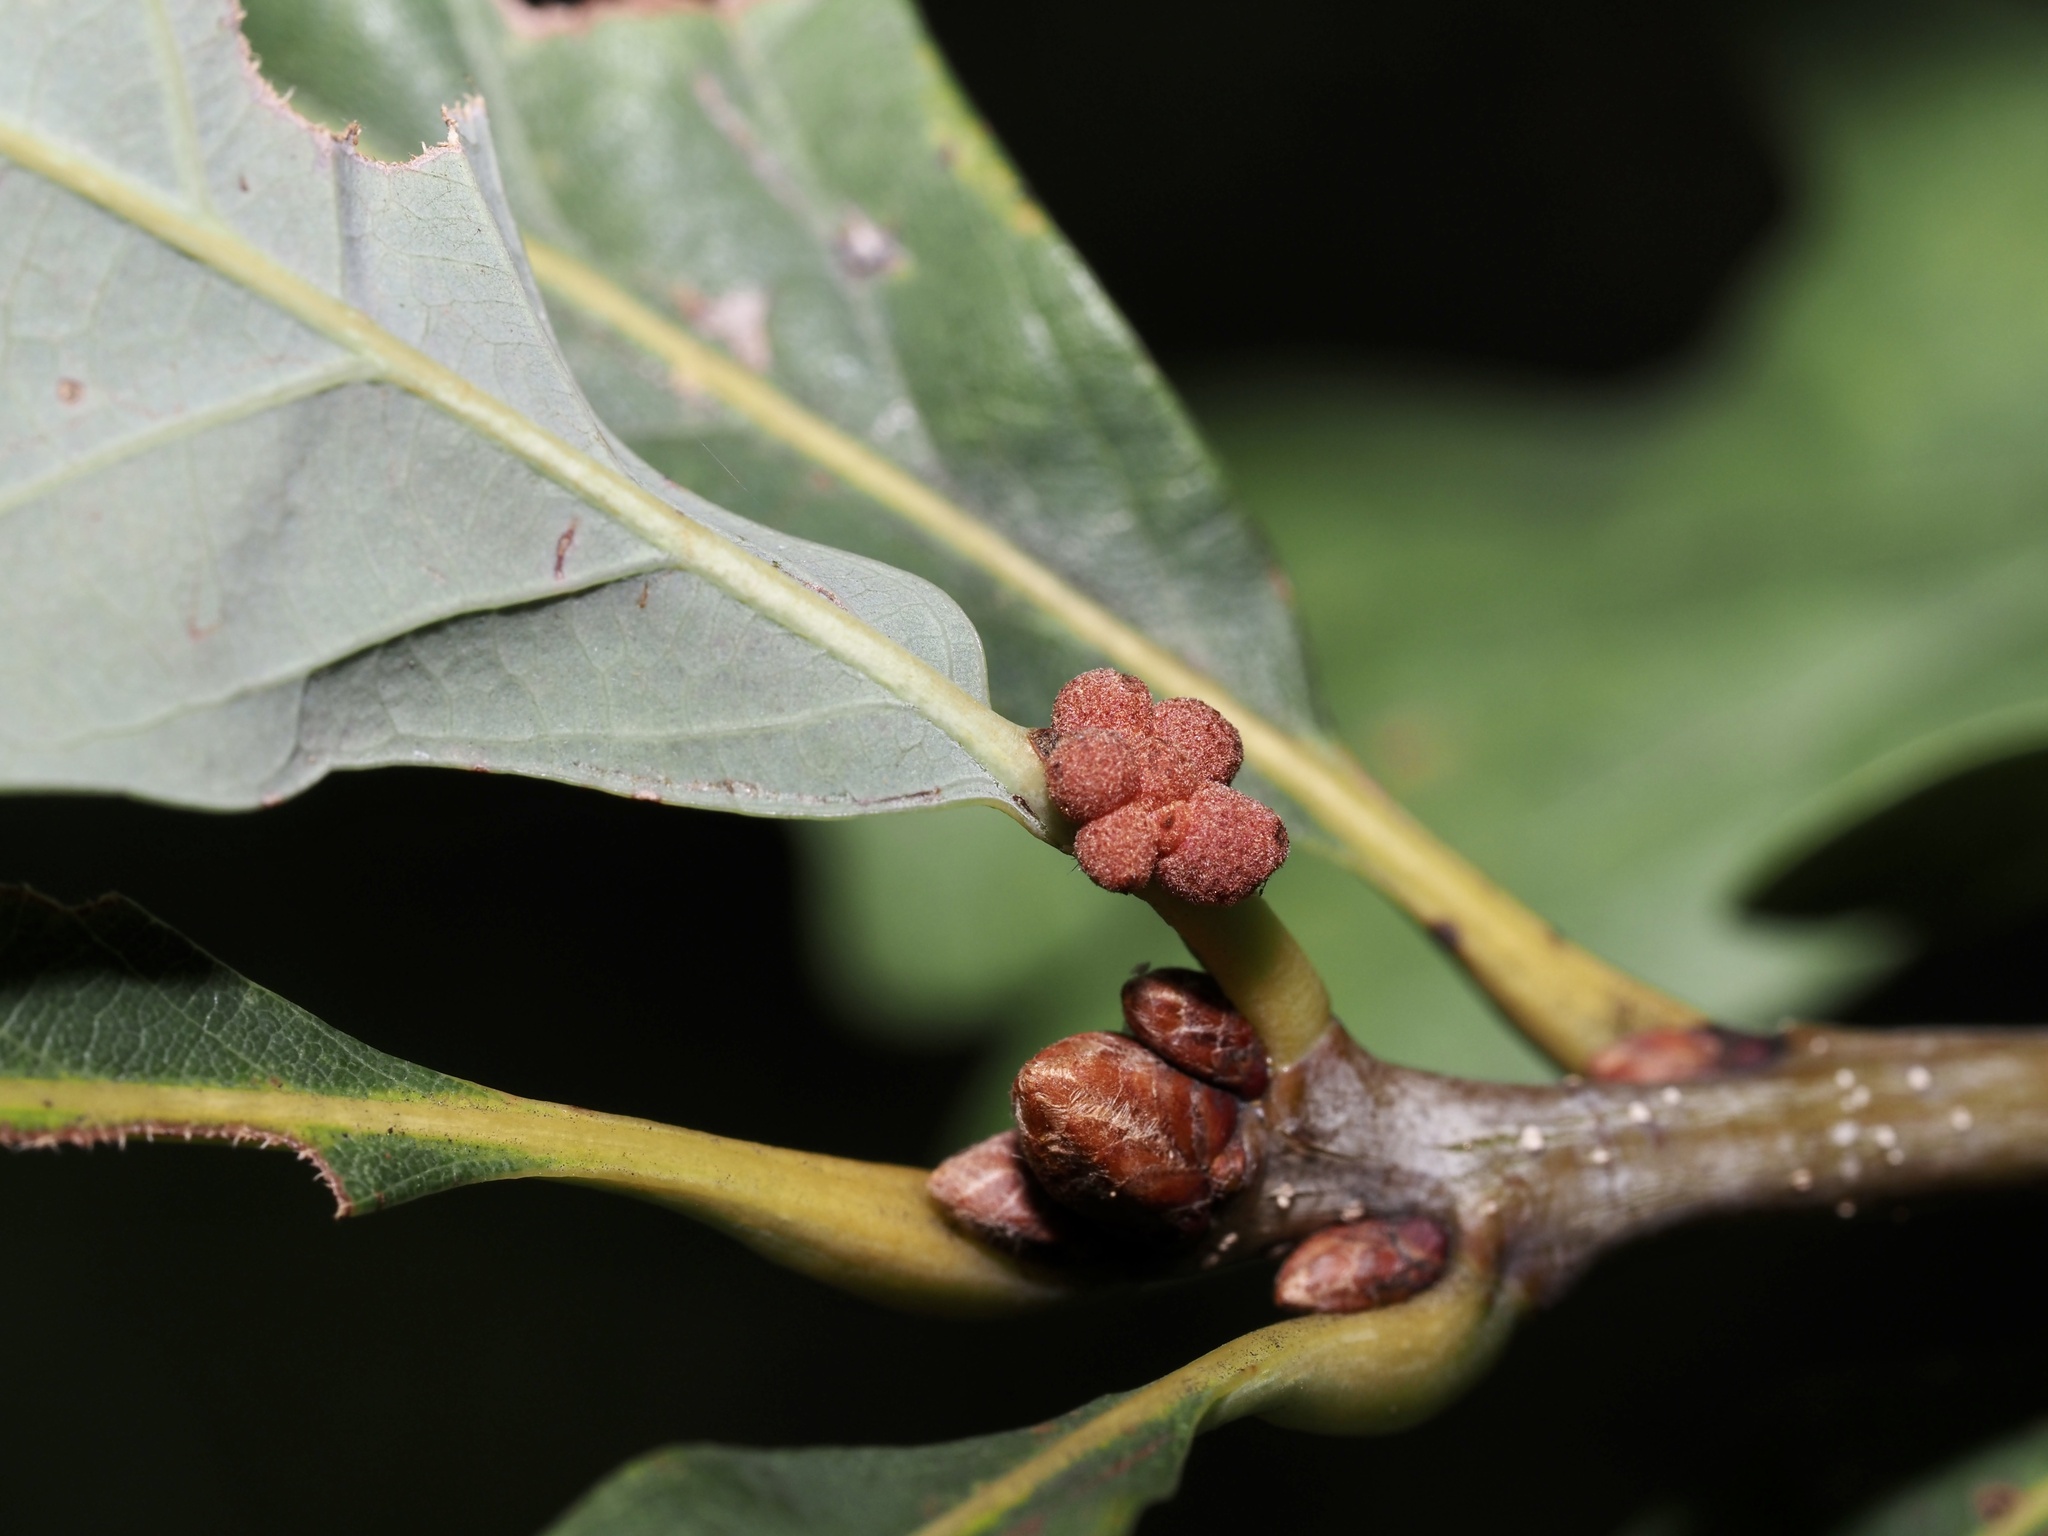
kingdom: Animalia
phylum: Arthropoda
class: Insecta
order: Hymenoptera
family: Cynipidae
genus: Andricus
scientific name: Andricus
